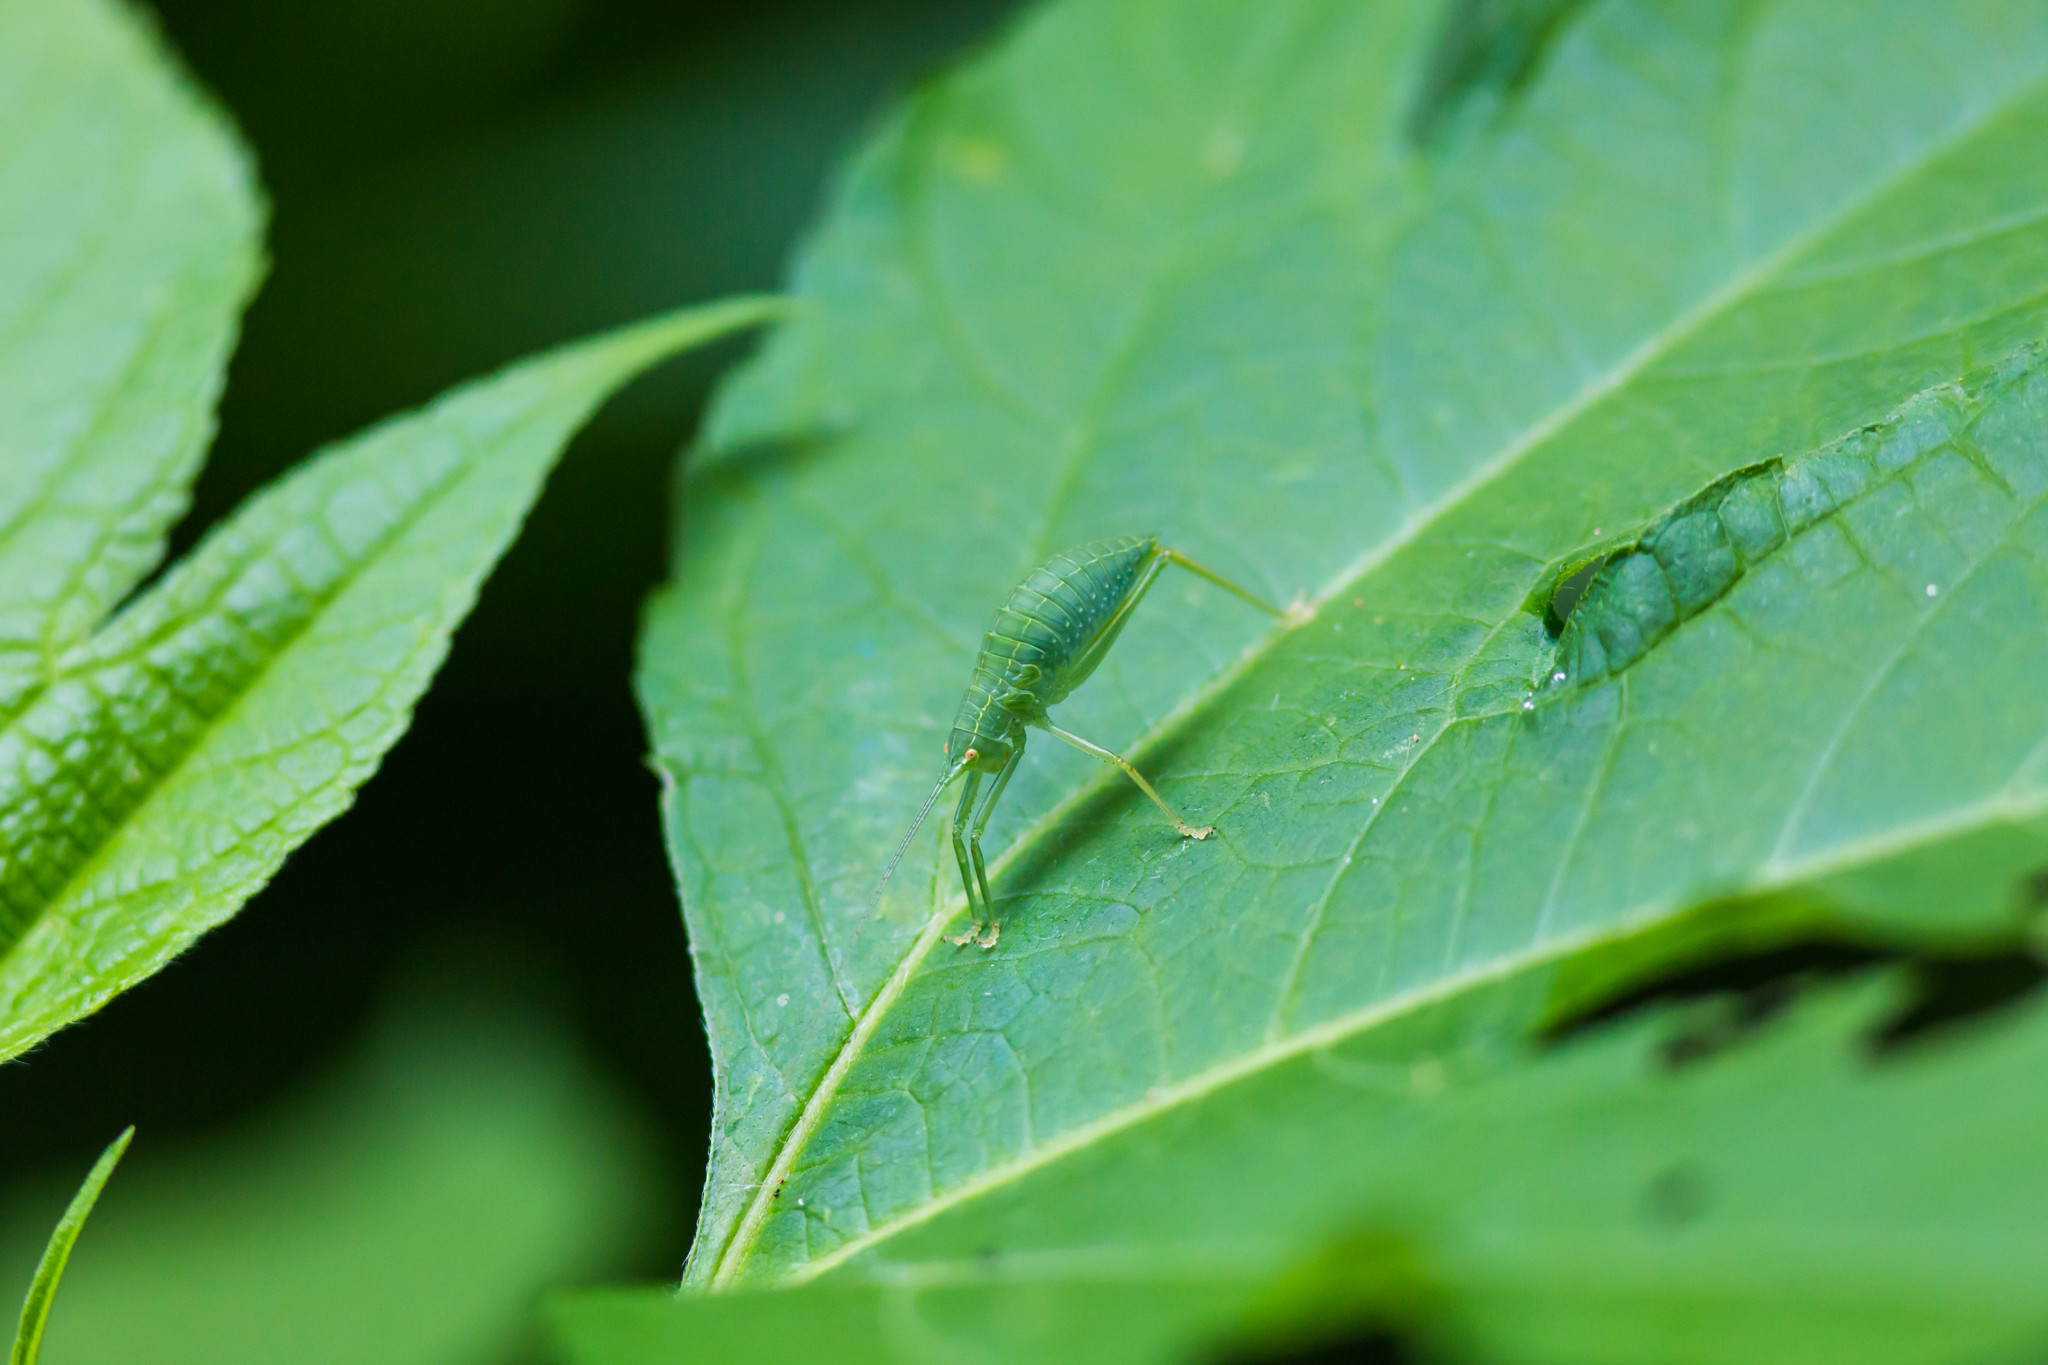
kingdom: Animalia
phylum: Arthropoda
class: Insecta
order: Orthoptera
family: Tettigoniidae
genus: Pterophylla
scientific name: Pterophylla camellifolia
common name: Common true katydid
